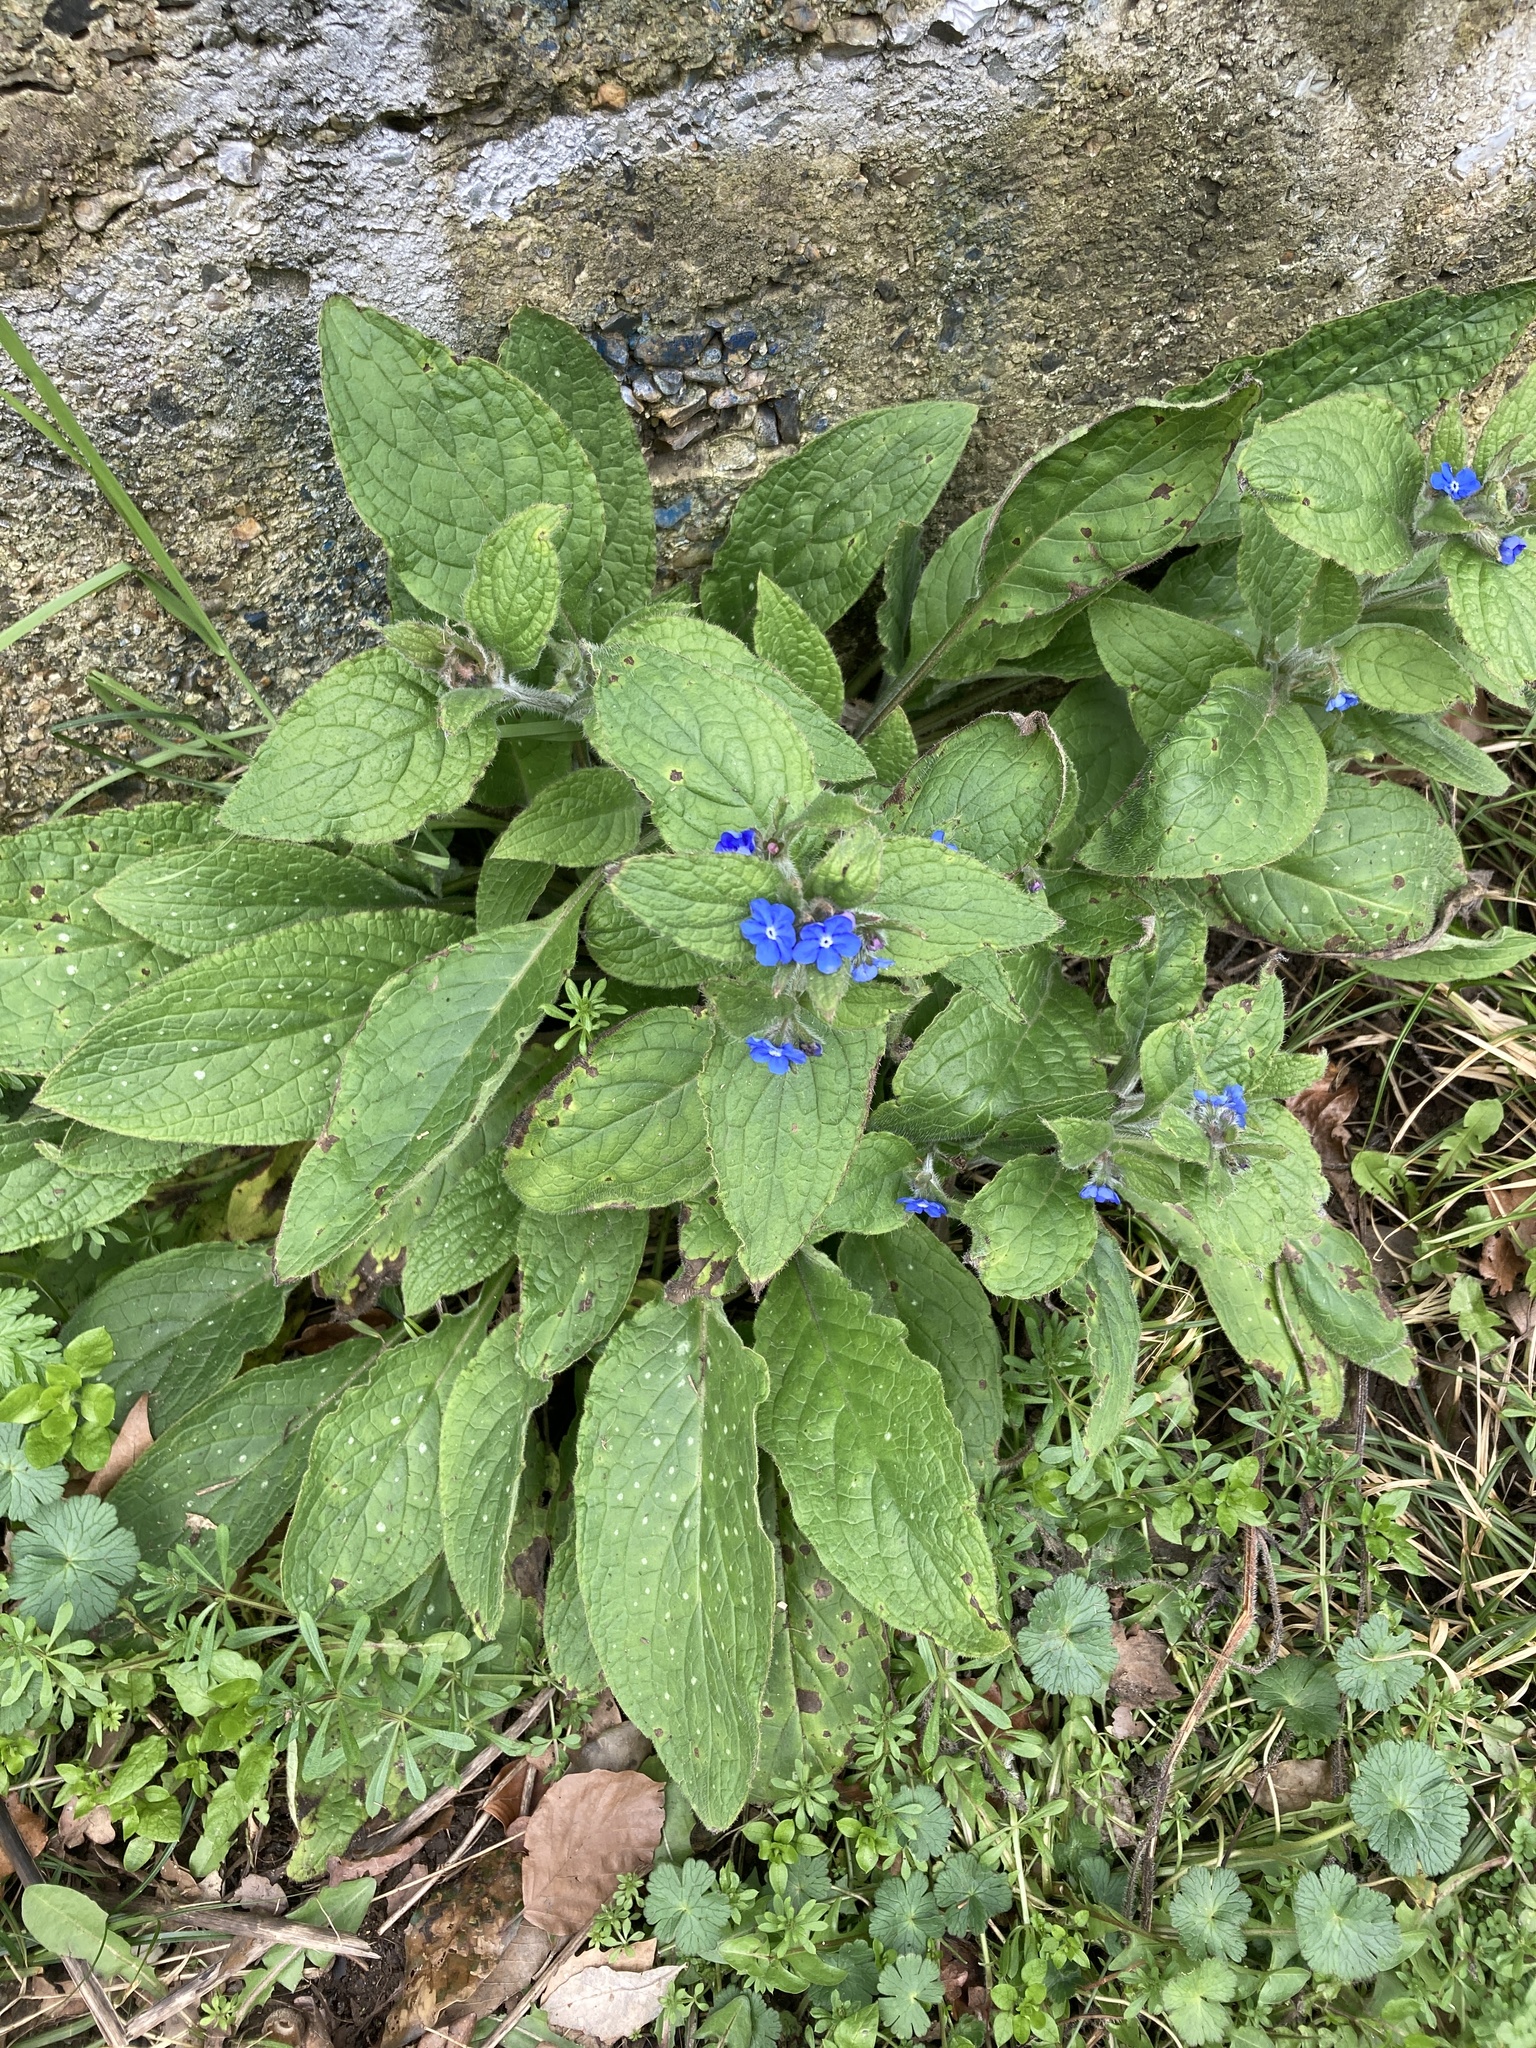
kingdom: Plantae
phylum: Tracheophyta
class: Magnoliopsida
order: Boraginales
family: Boraginaceae
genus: Pentaglottis
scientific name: Pentaglottis sempervirens
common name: Green alkanet
